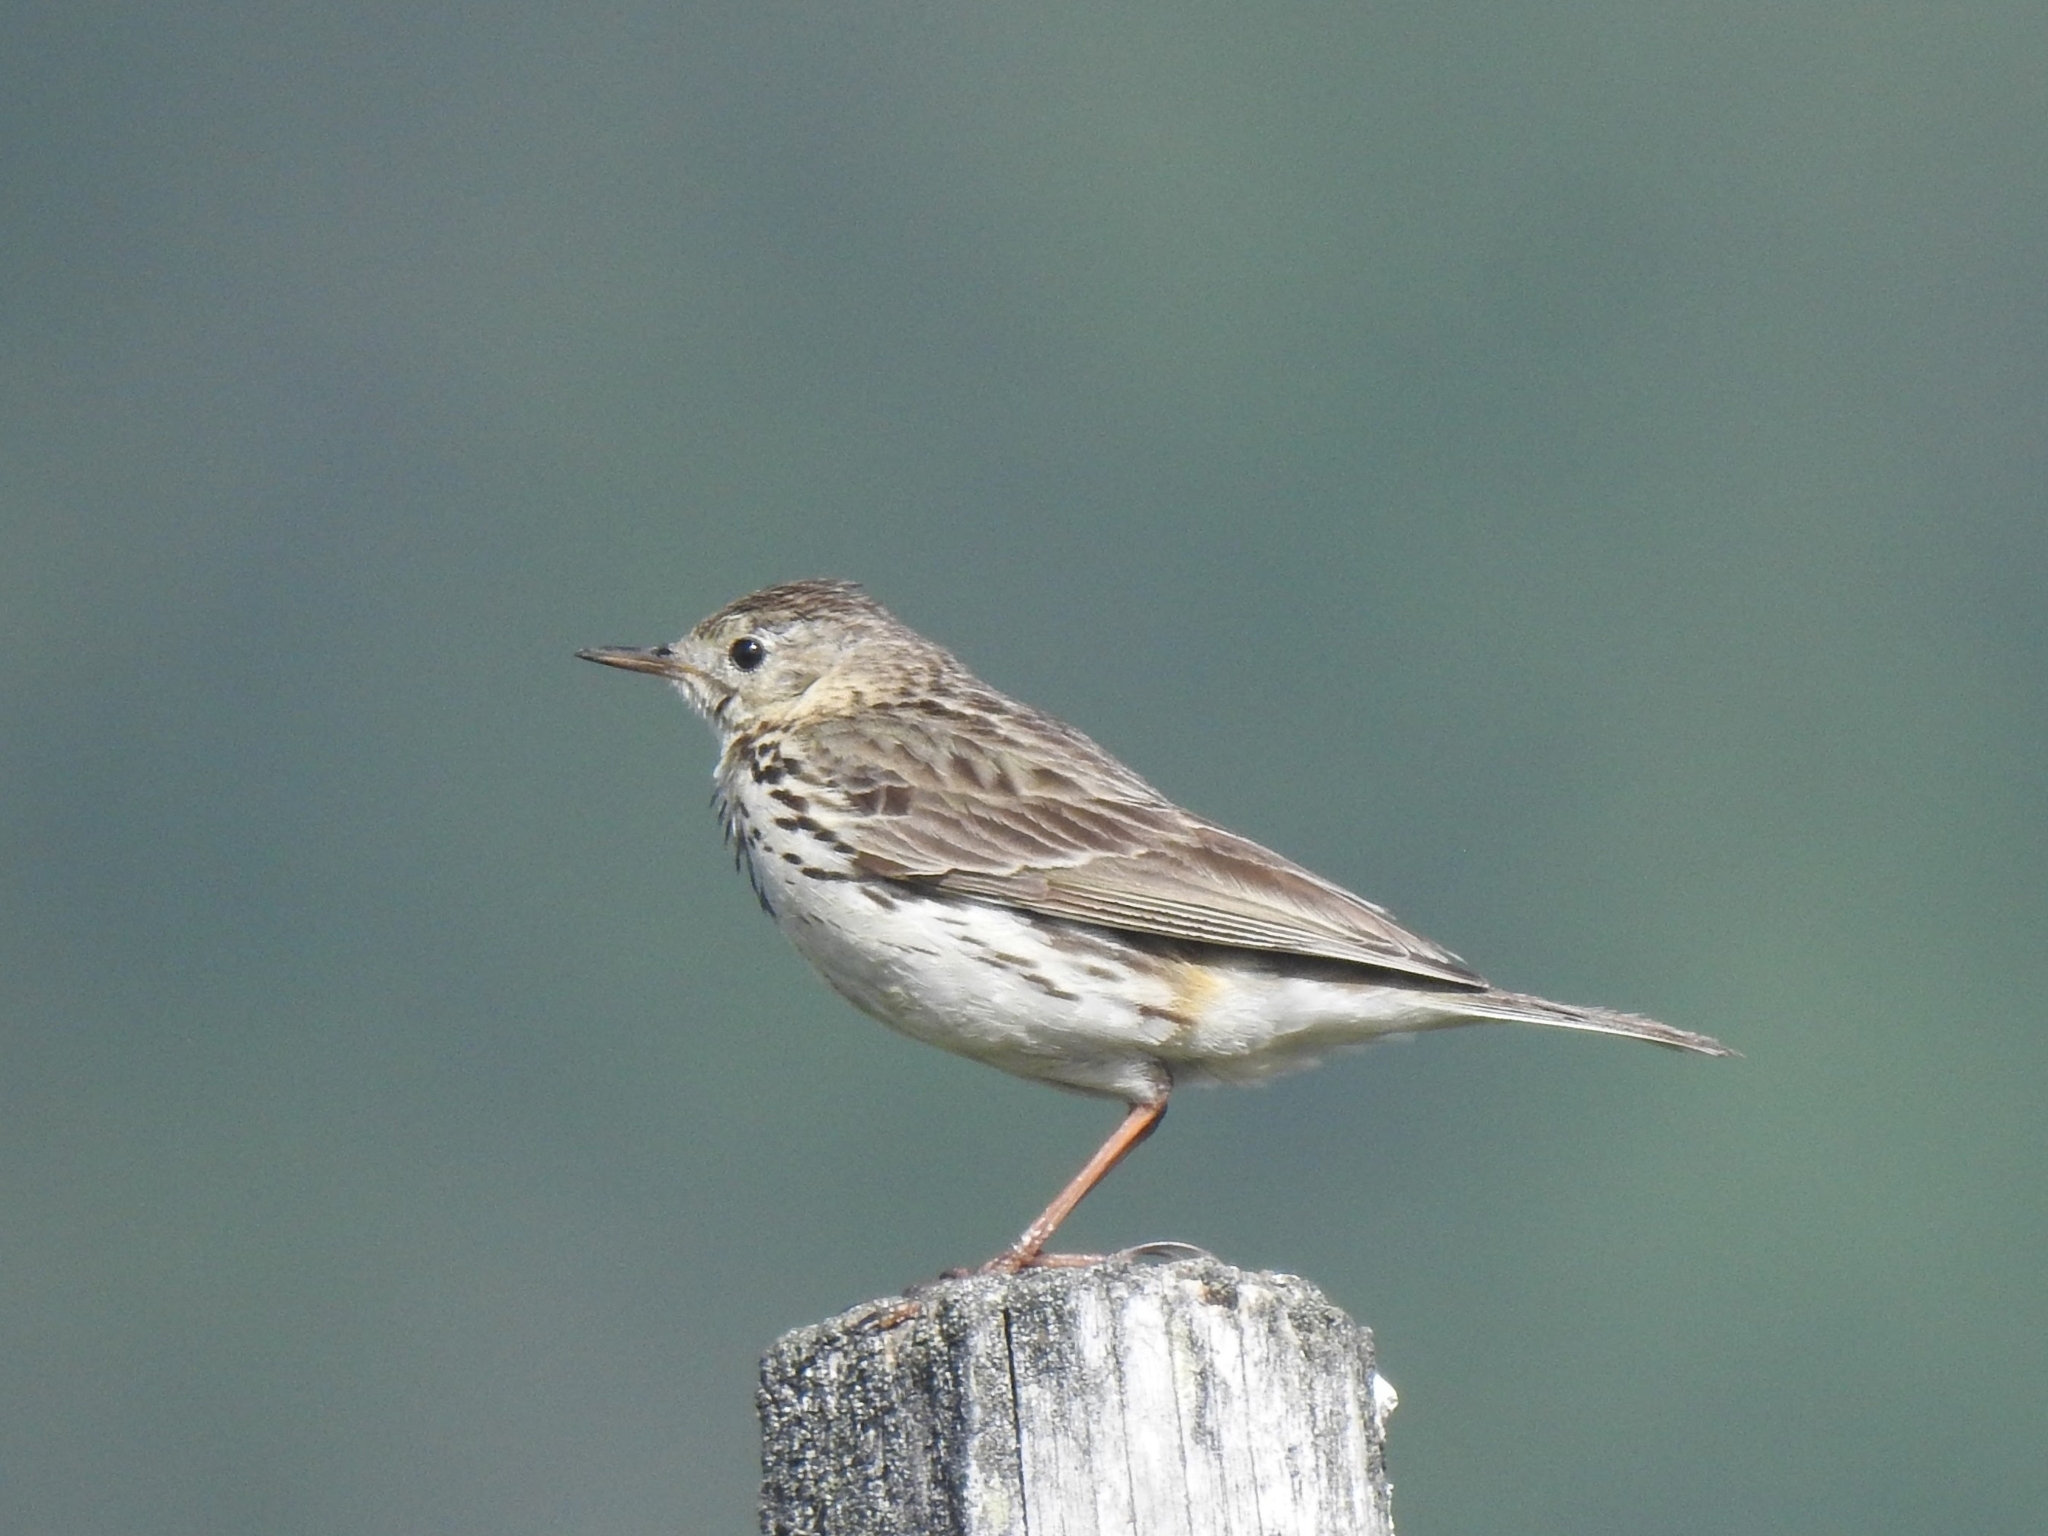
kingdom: Animalia
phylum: Chordata
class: Aves
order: Passeriformes
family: Motacillidae
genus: Anthus
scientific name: Anthus pratensis
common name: Meadow pipit
